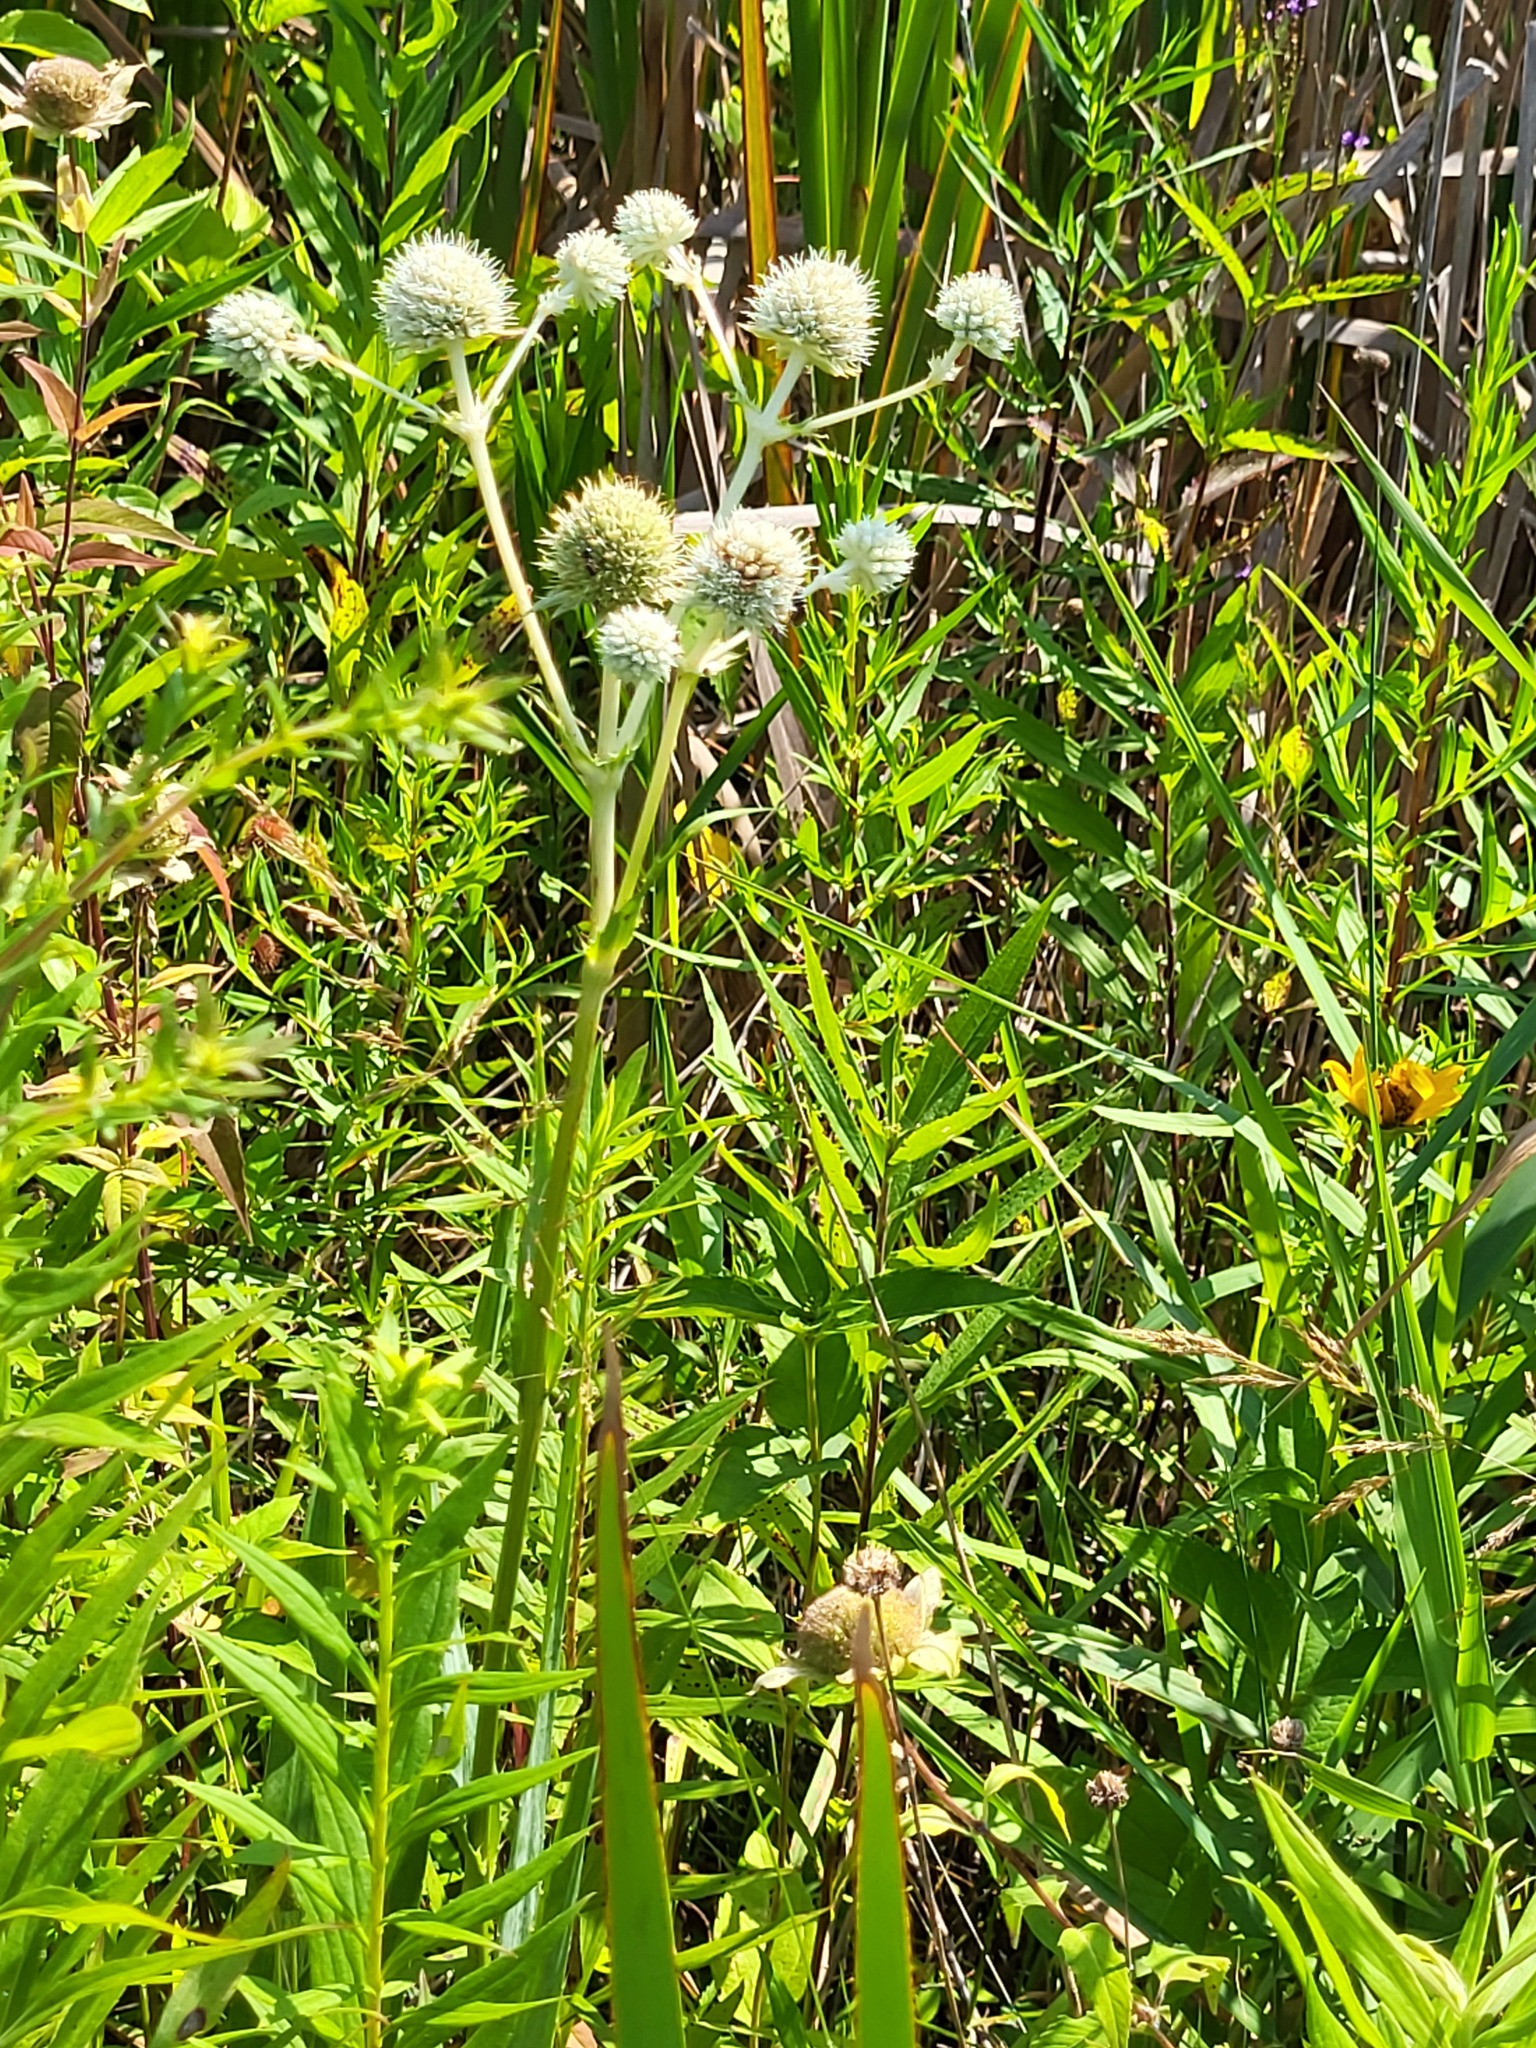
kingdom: Plantae
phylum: Tracheophyta
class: Magnoliopsida
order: Apiales
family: Apiaceae
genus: Eryngium
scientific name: Eryngium yuccifolium
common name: Button eryngo
